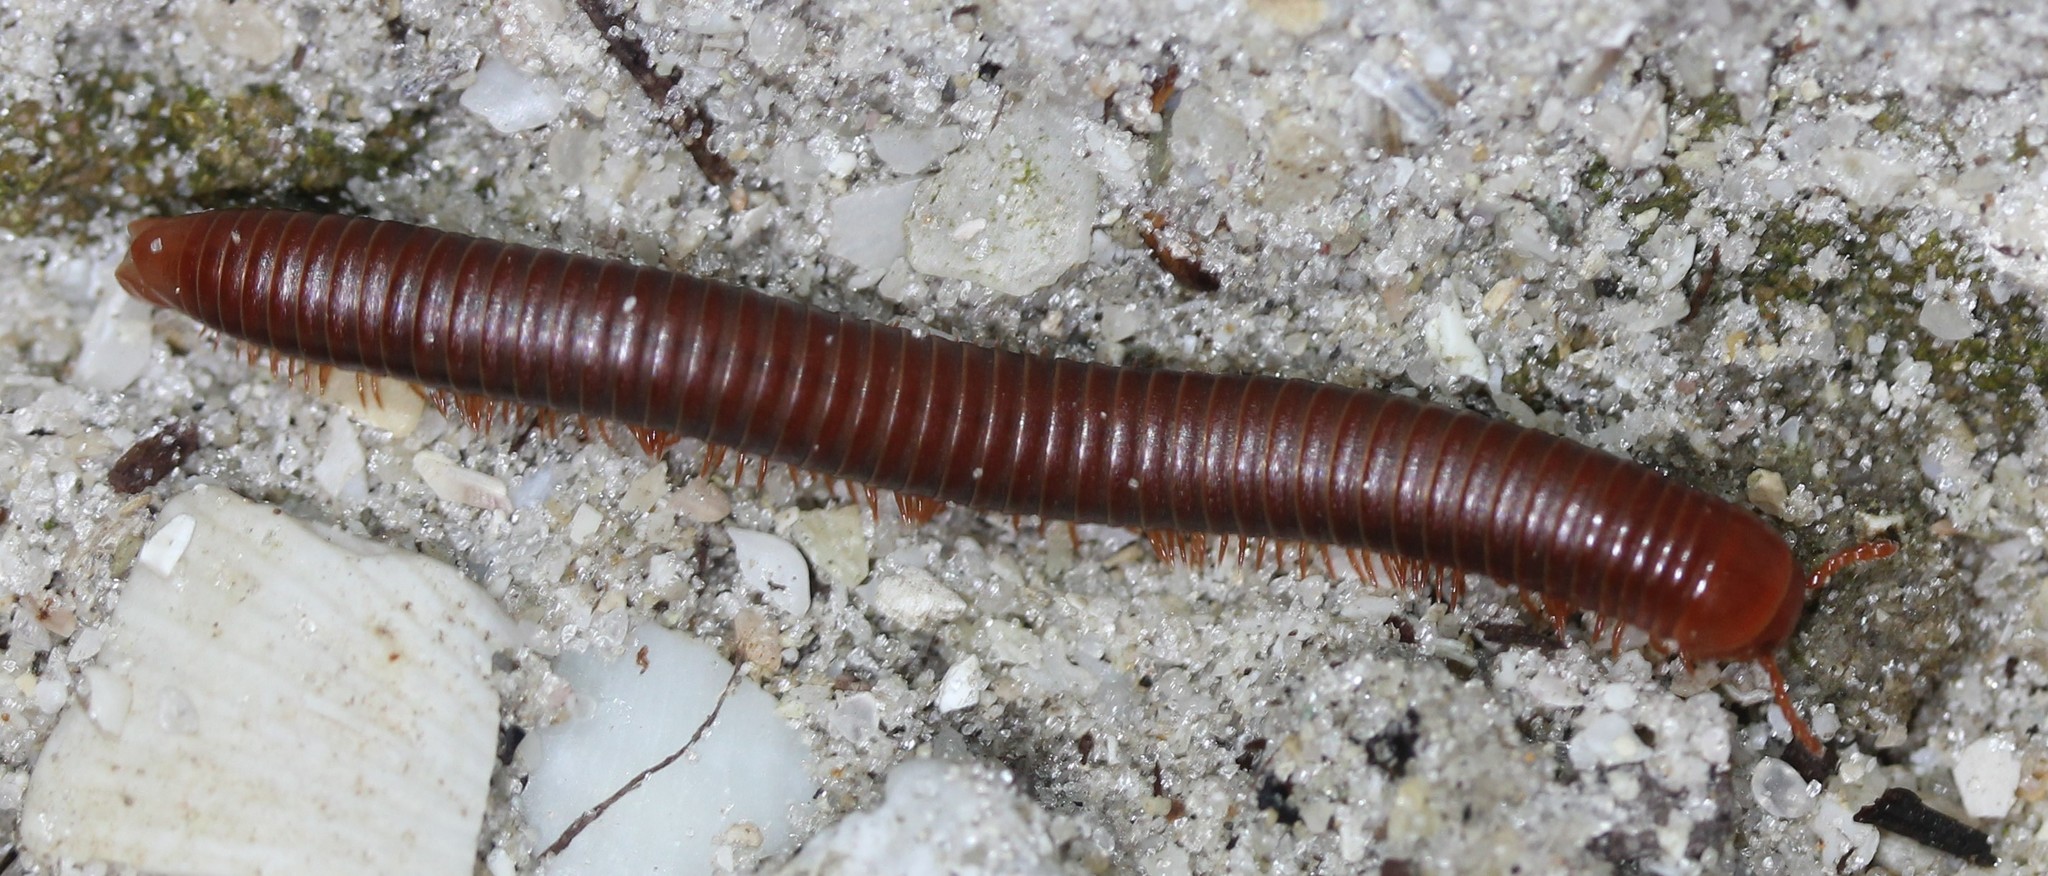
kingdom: Animalia
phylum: Arthropoda
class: Diplopoda
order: Spirobolida
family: Pachybolidae
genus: Trigoniulus
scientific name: Trigoniulus corallinus
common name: Millipede
